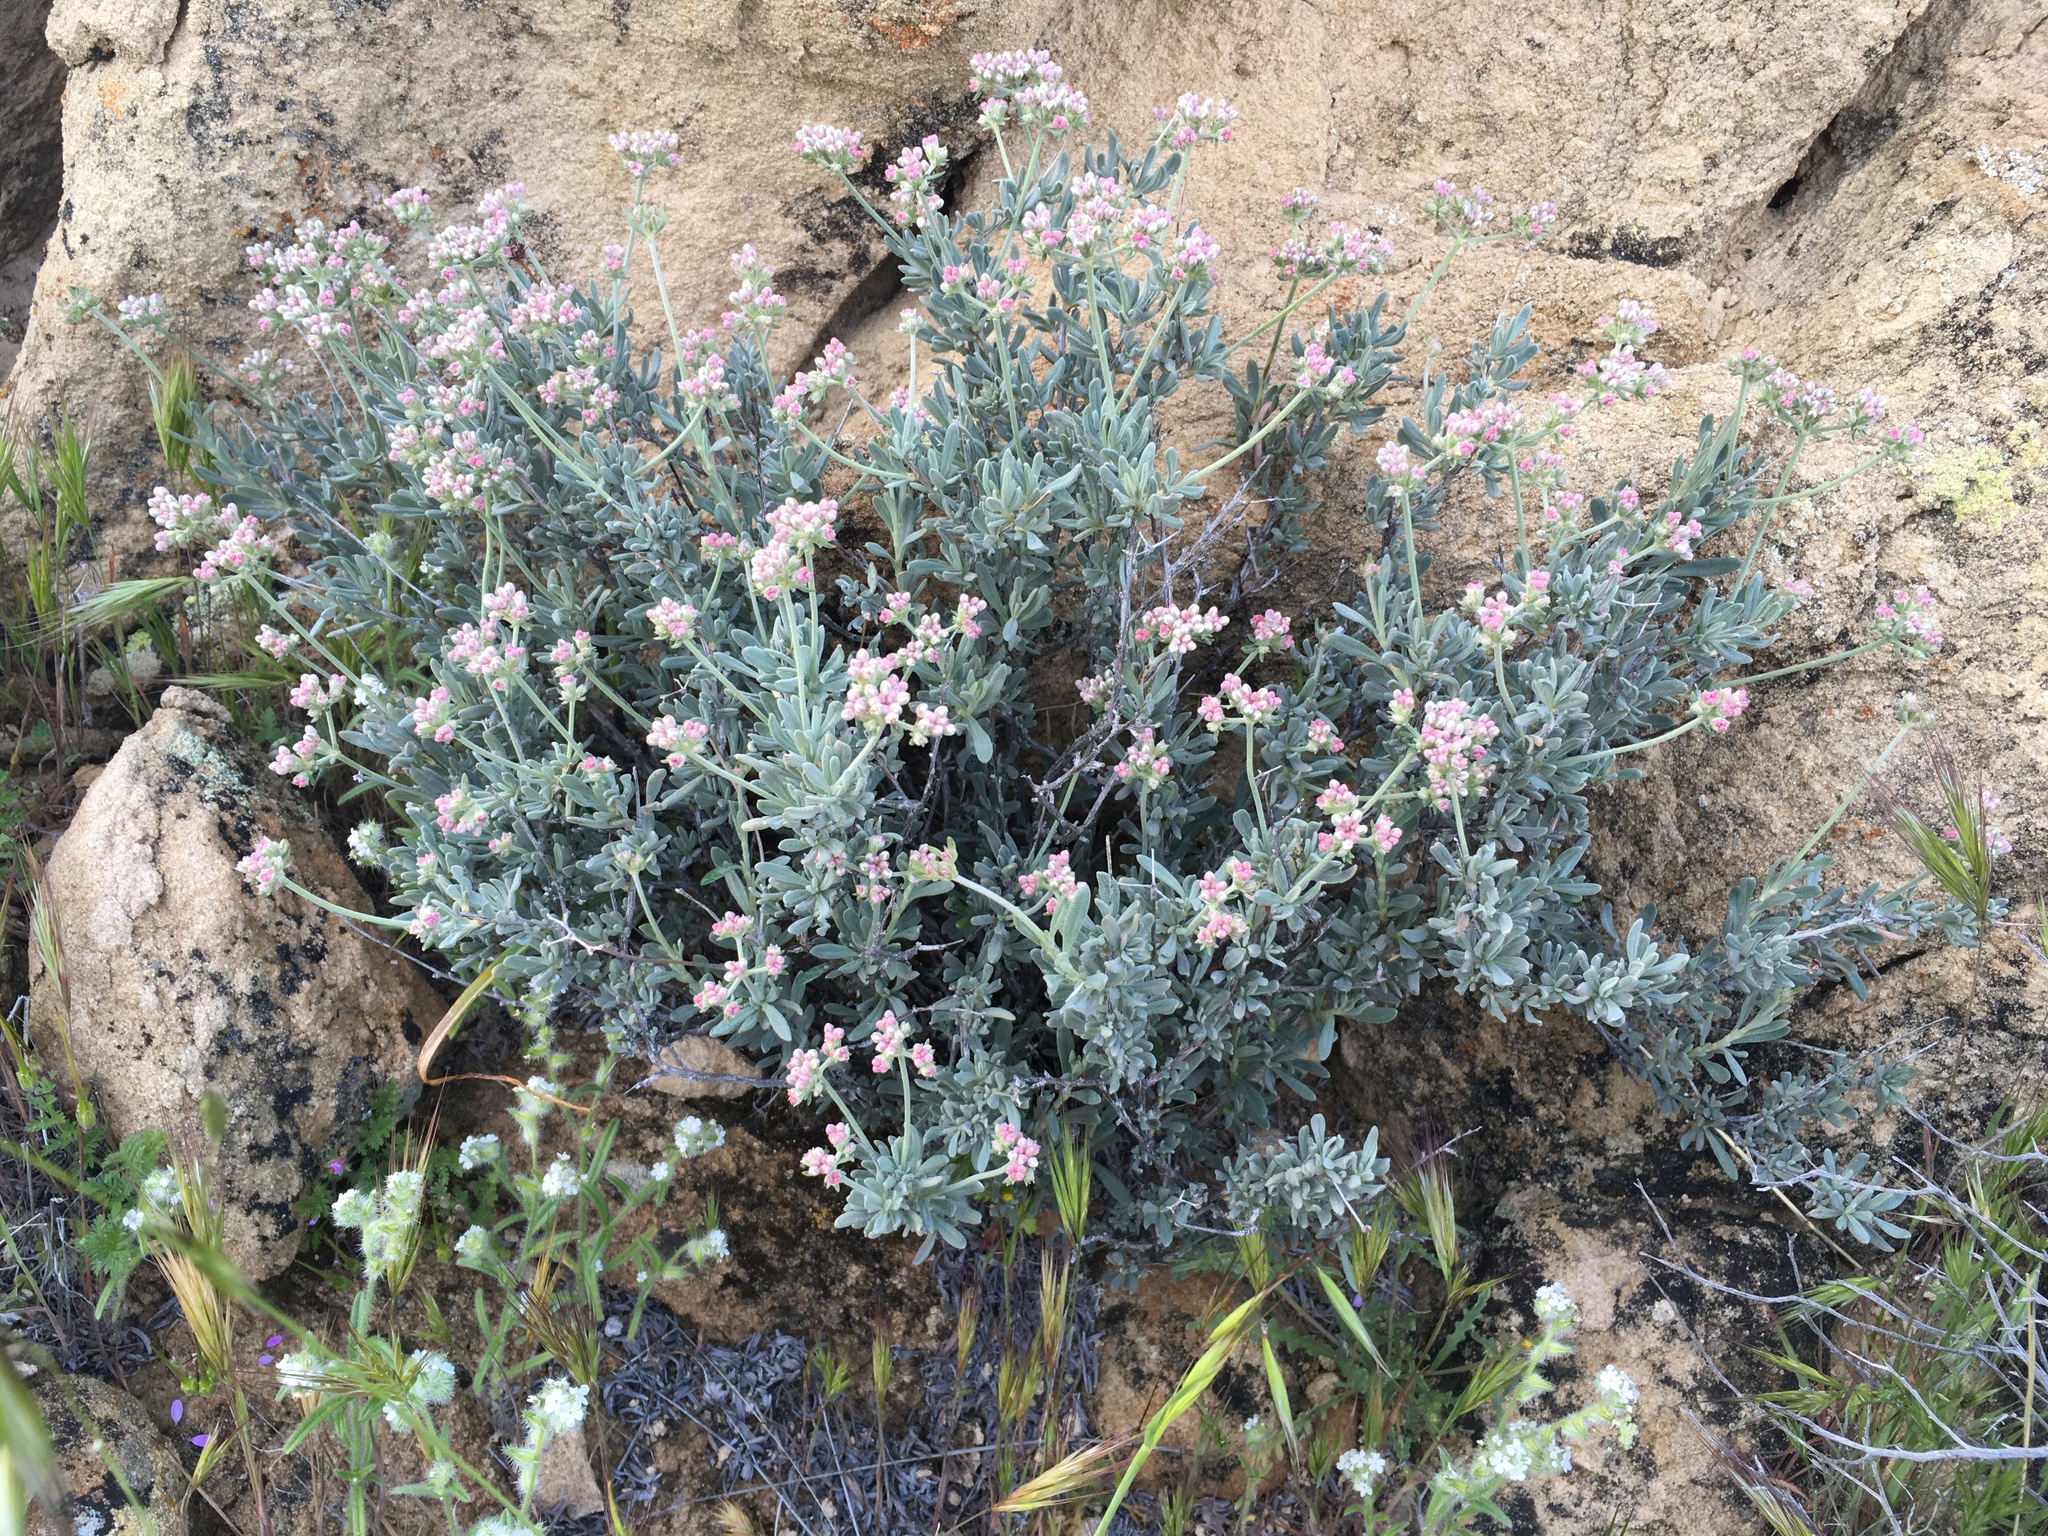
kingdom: Plantae
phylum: Tracheophyta
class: Magnoliopsida
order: Caryophyllales
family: Polygonaceae
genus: Eriogonum
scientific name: Eriogonum fasciculatum
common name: California wild buckwheat
